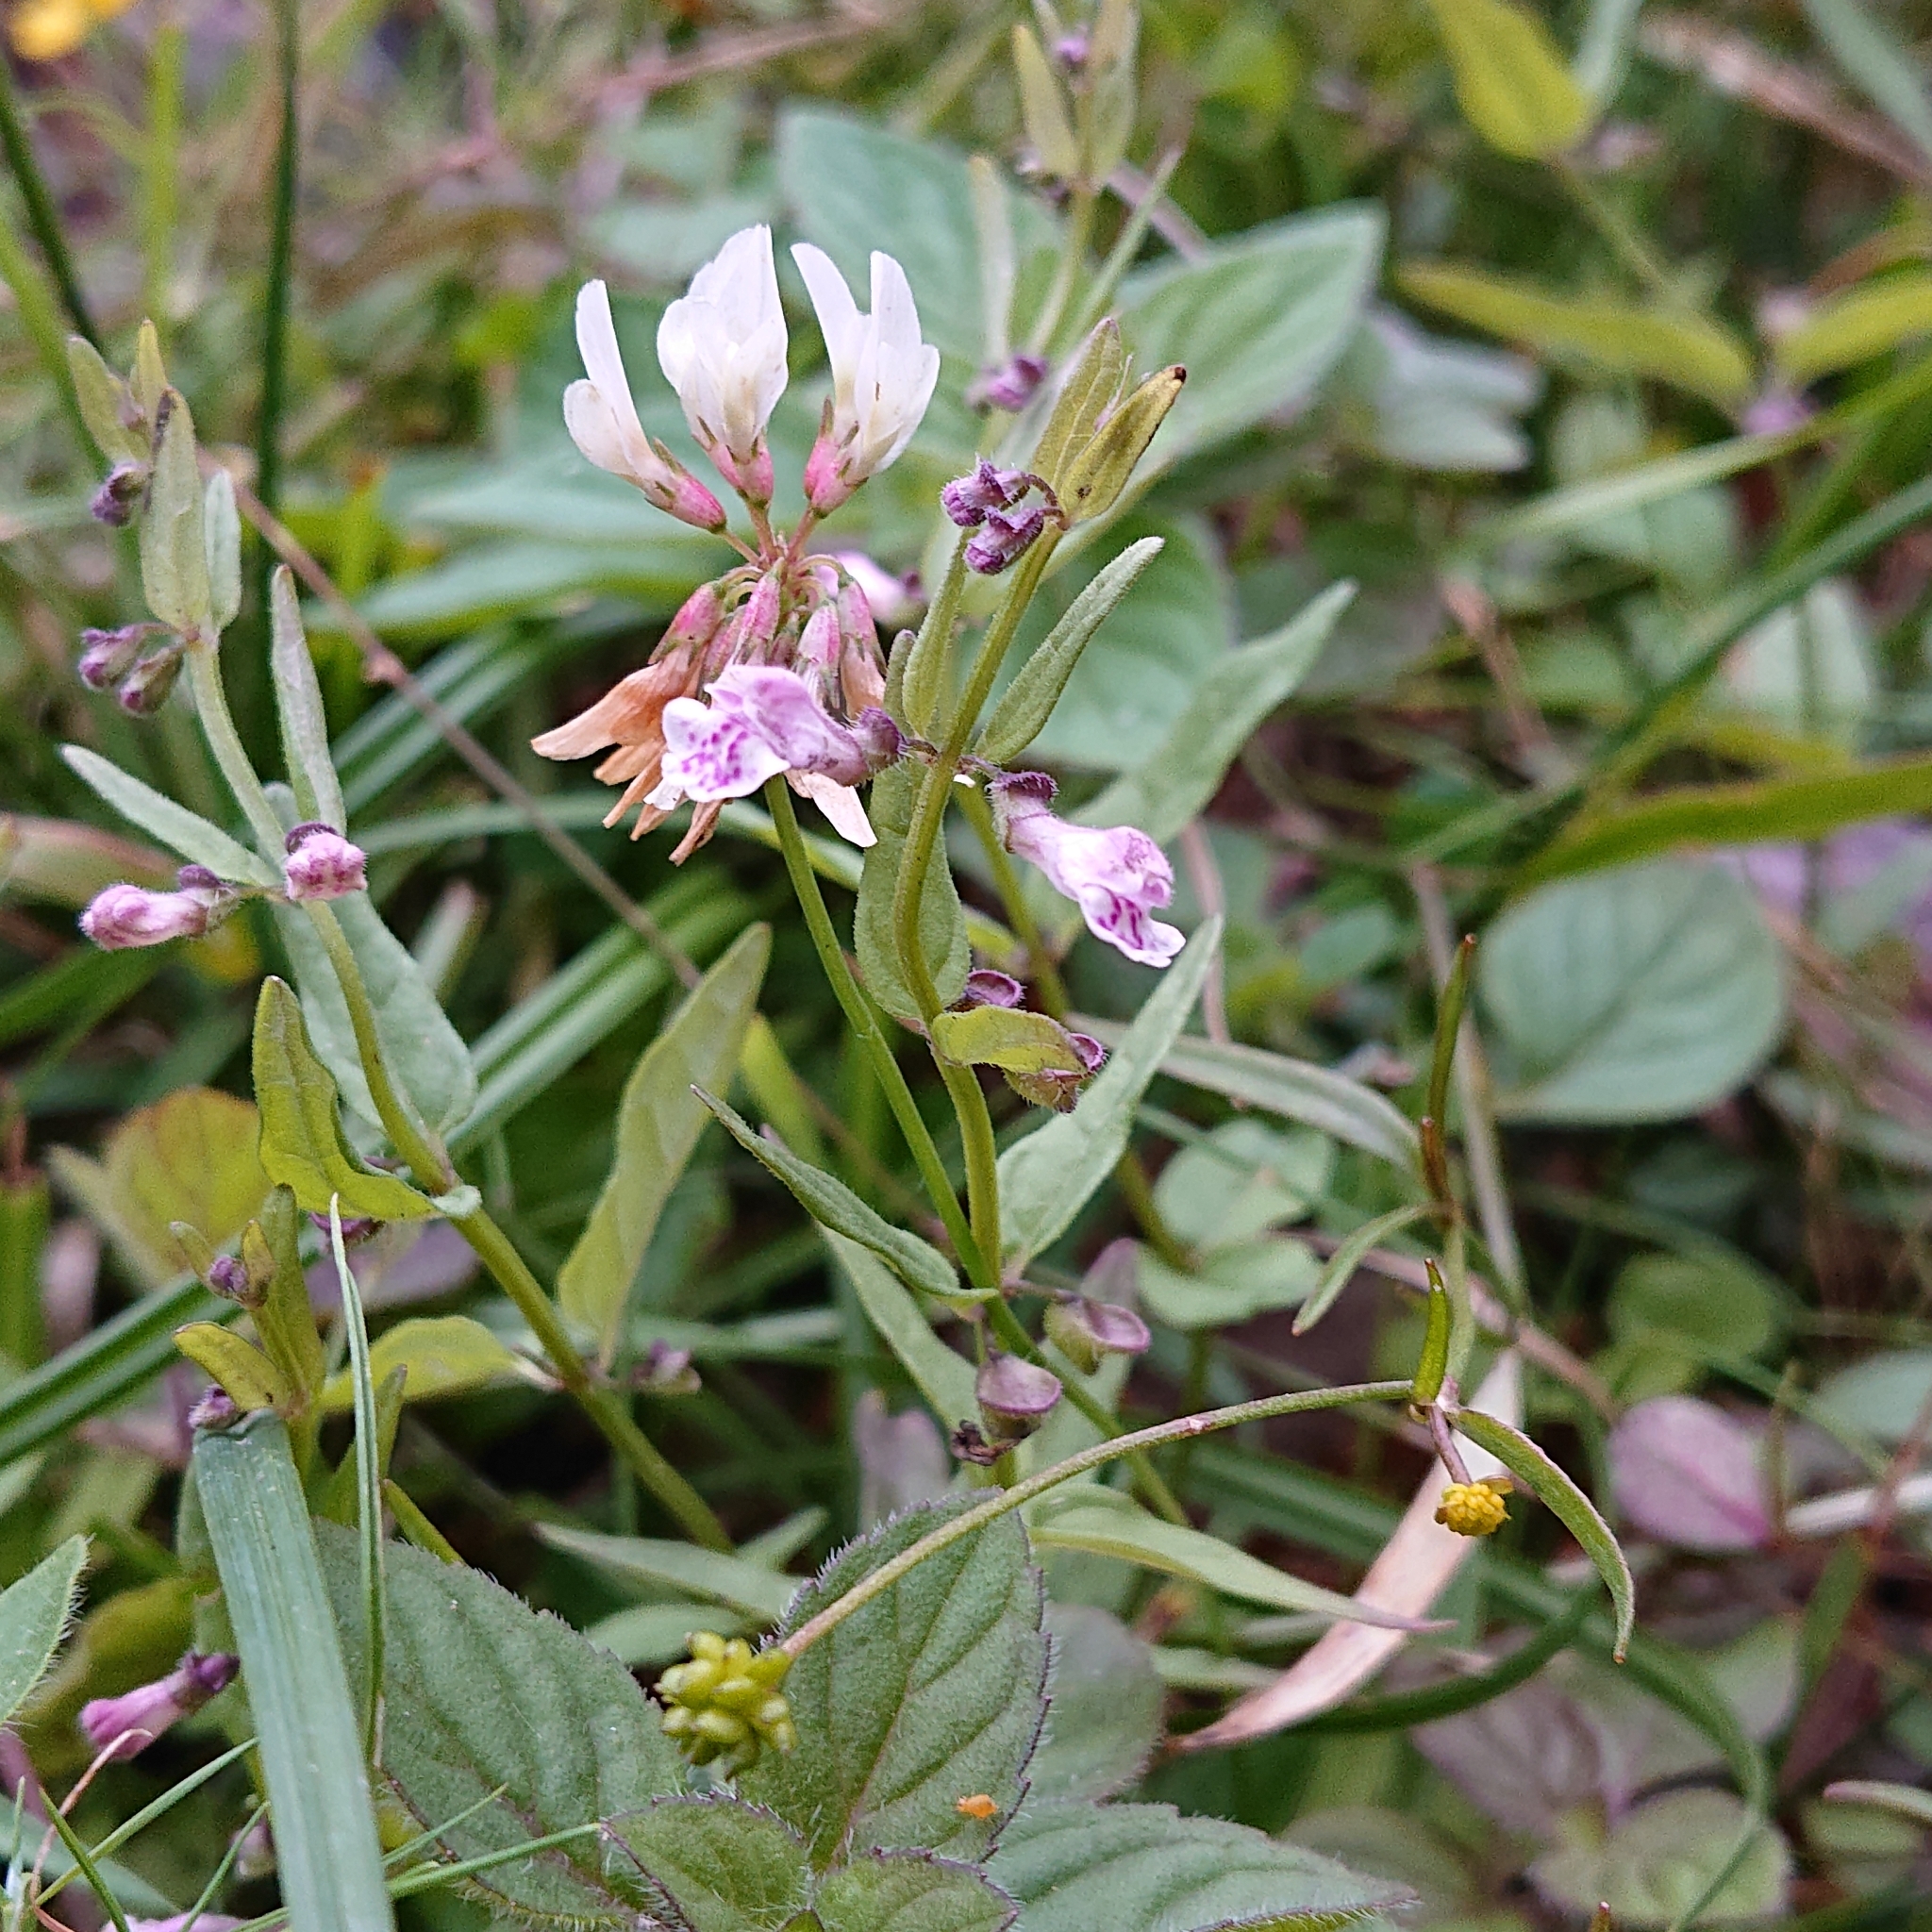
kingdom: Plantae
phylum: Tracheophyta
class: Magnoliopsida
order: Lamiales
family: Lamiaceae
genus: Scutellaria
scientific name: Scutellaria minor
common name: Lesser skullcap
